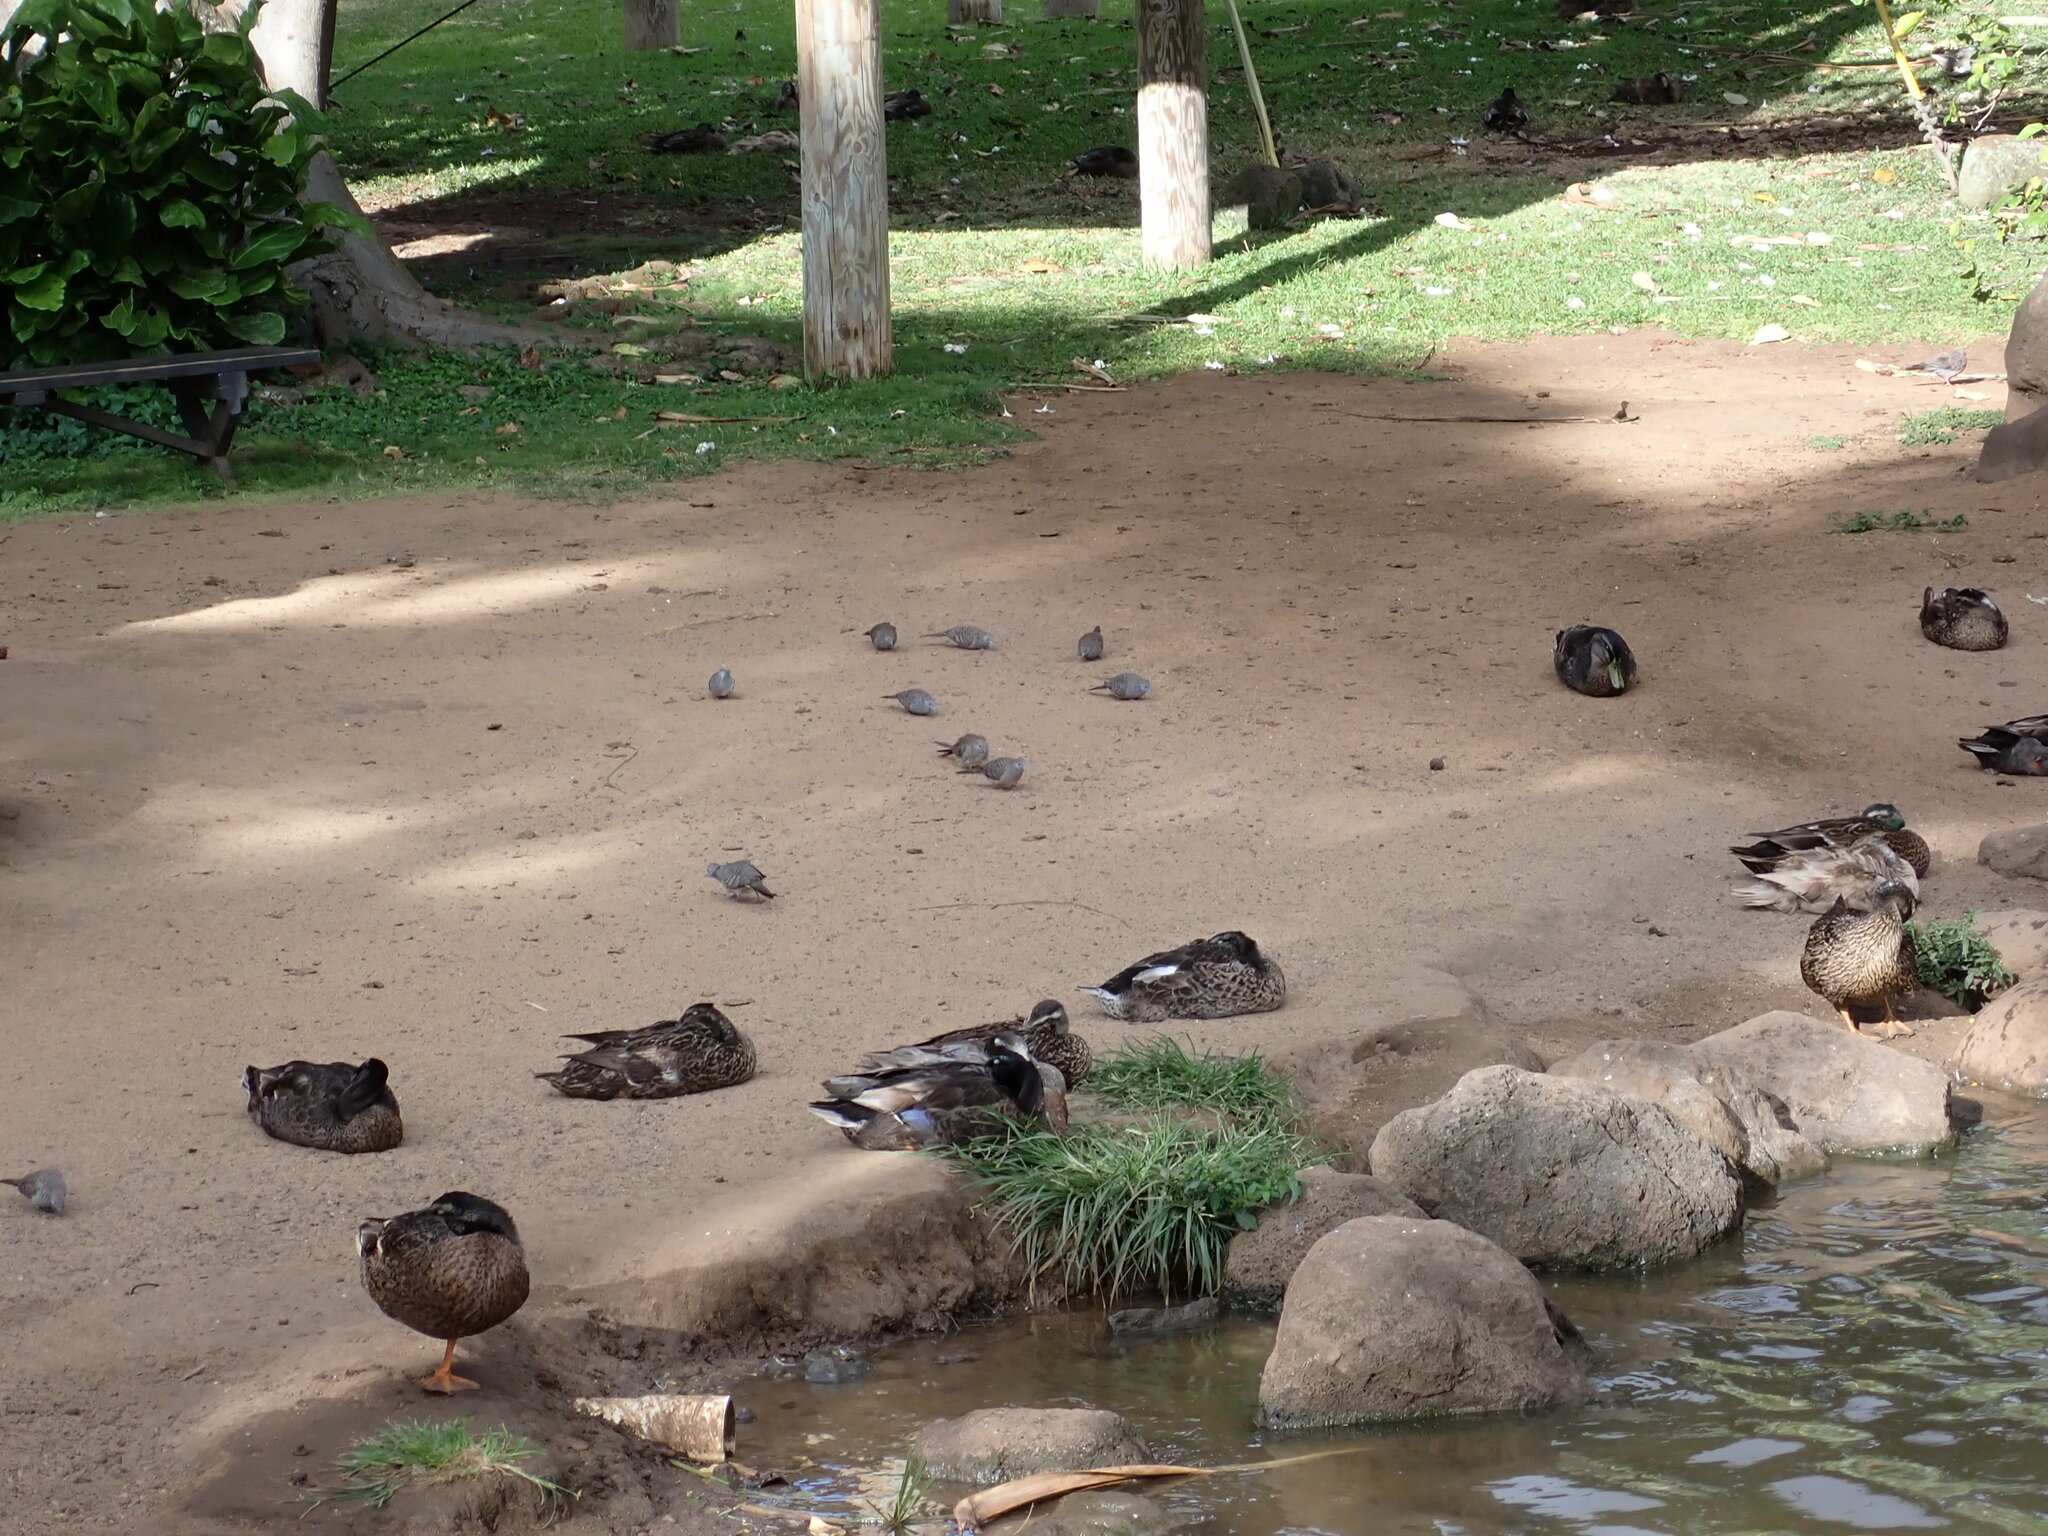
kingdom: Animalia
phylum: Chordata
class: Aves
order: Columbiformes
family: Columbidae
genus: Geopelia
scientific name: Geopelia striata
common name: Zebra dove
